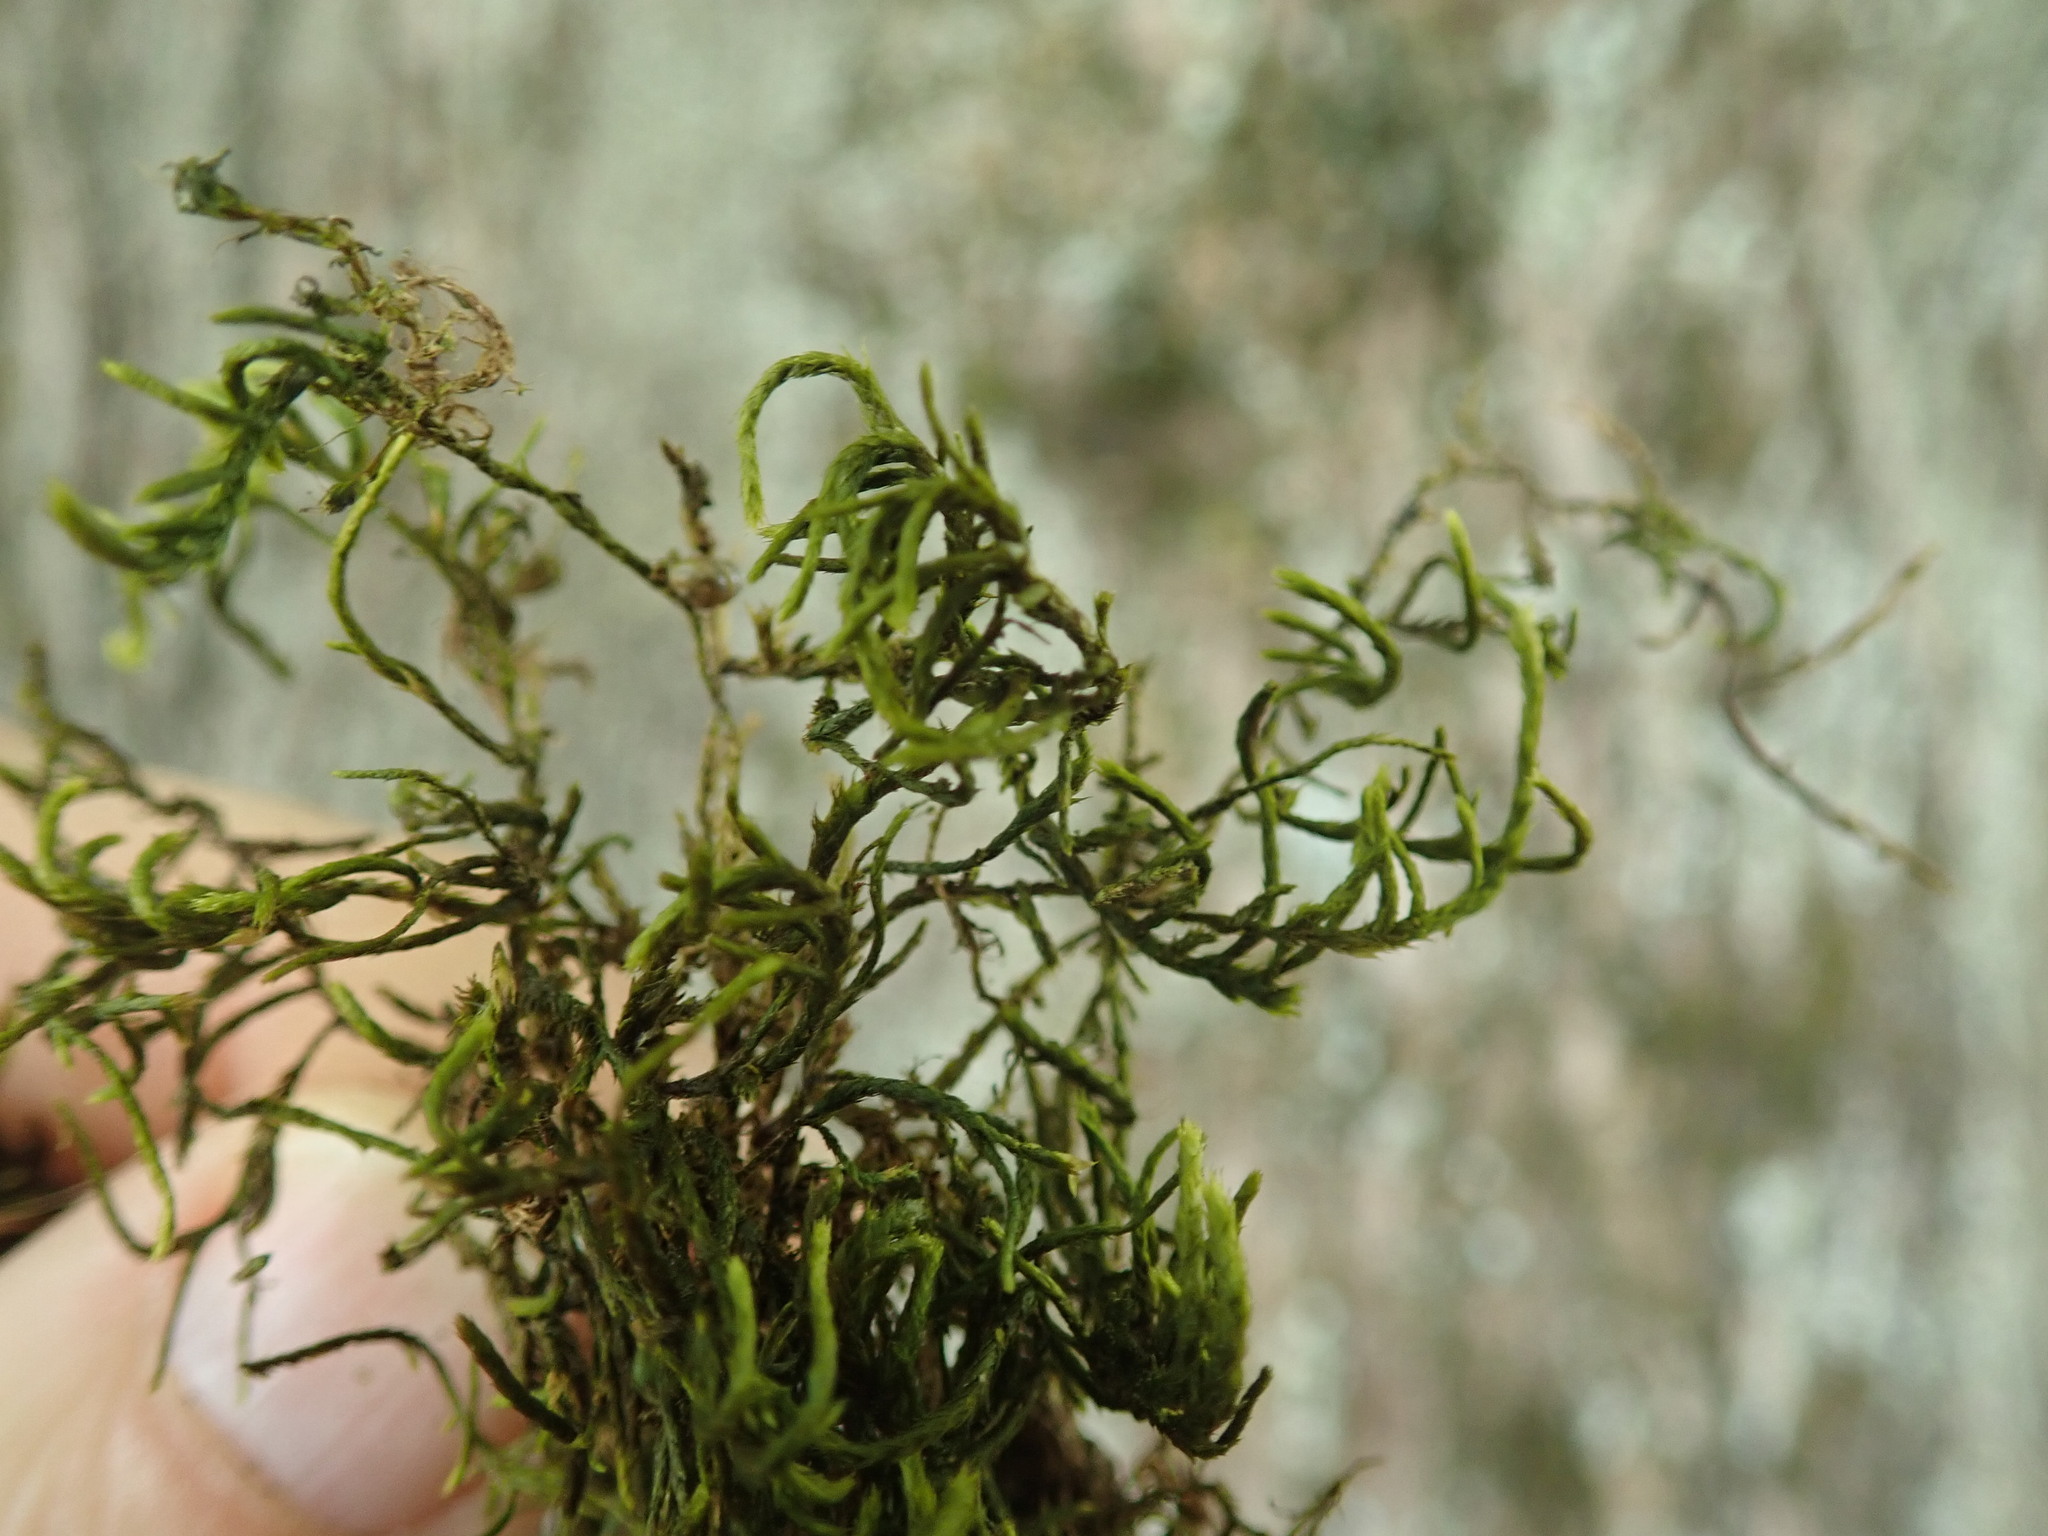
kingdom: Plantae
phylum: Bryophyta
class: Bryopsida
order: Hypnales
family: Antitrichiaceae
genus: Antitrichia
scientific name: Antitrichia californica
